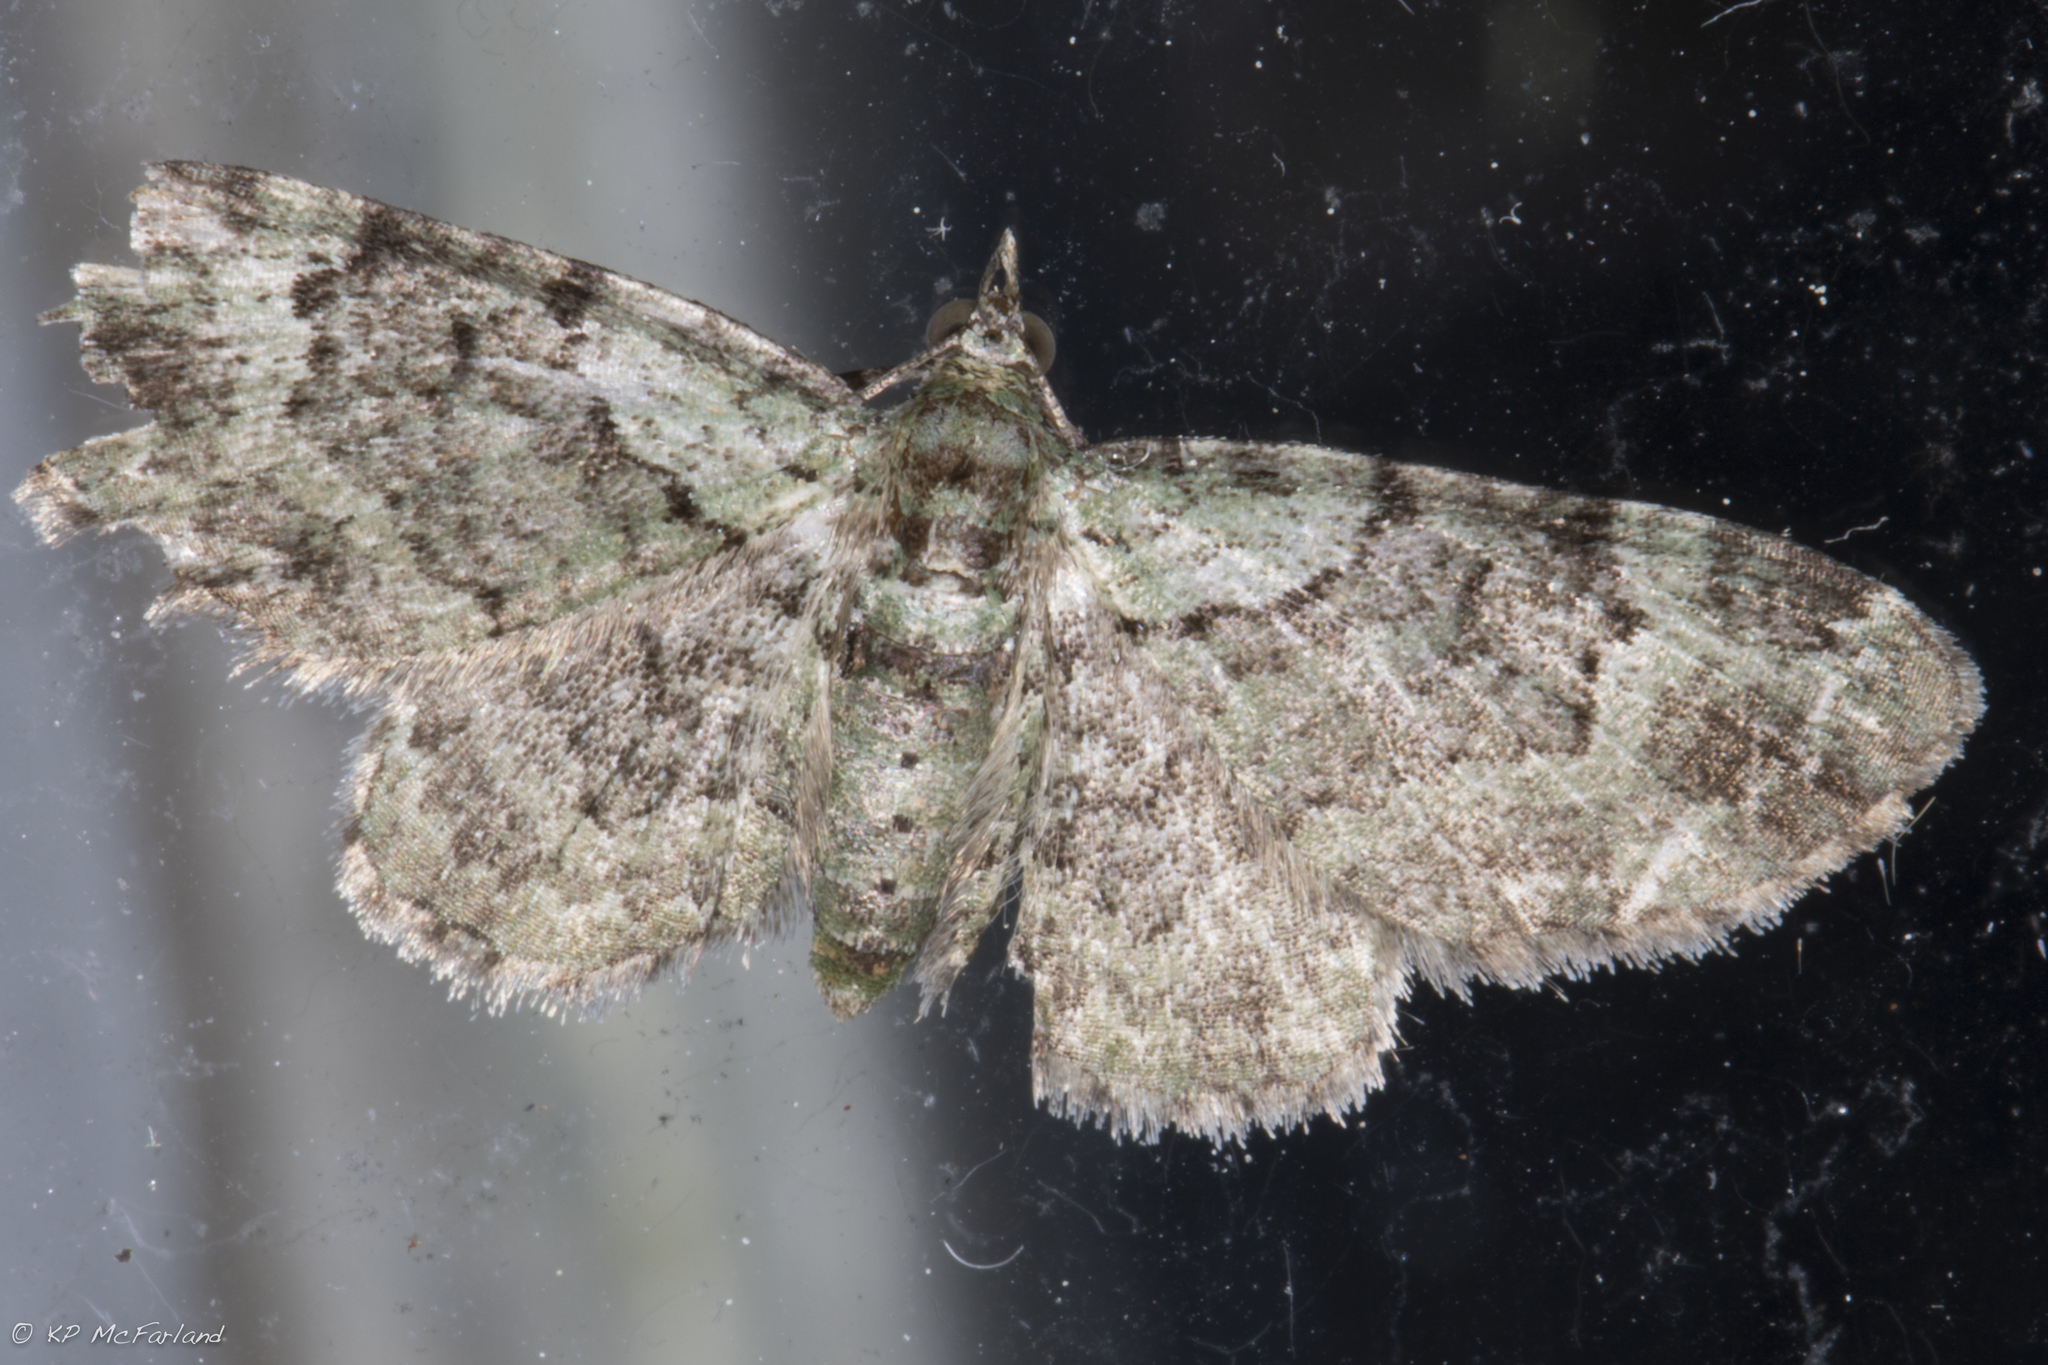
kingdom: Animalia
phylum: Arthropoda
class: Insecta
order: Lepidoptera
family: Geometridae
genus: Pasiphila
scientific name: Pasiphila rectangulata
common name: Green pug
